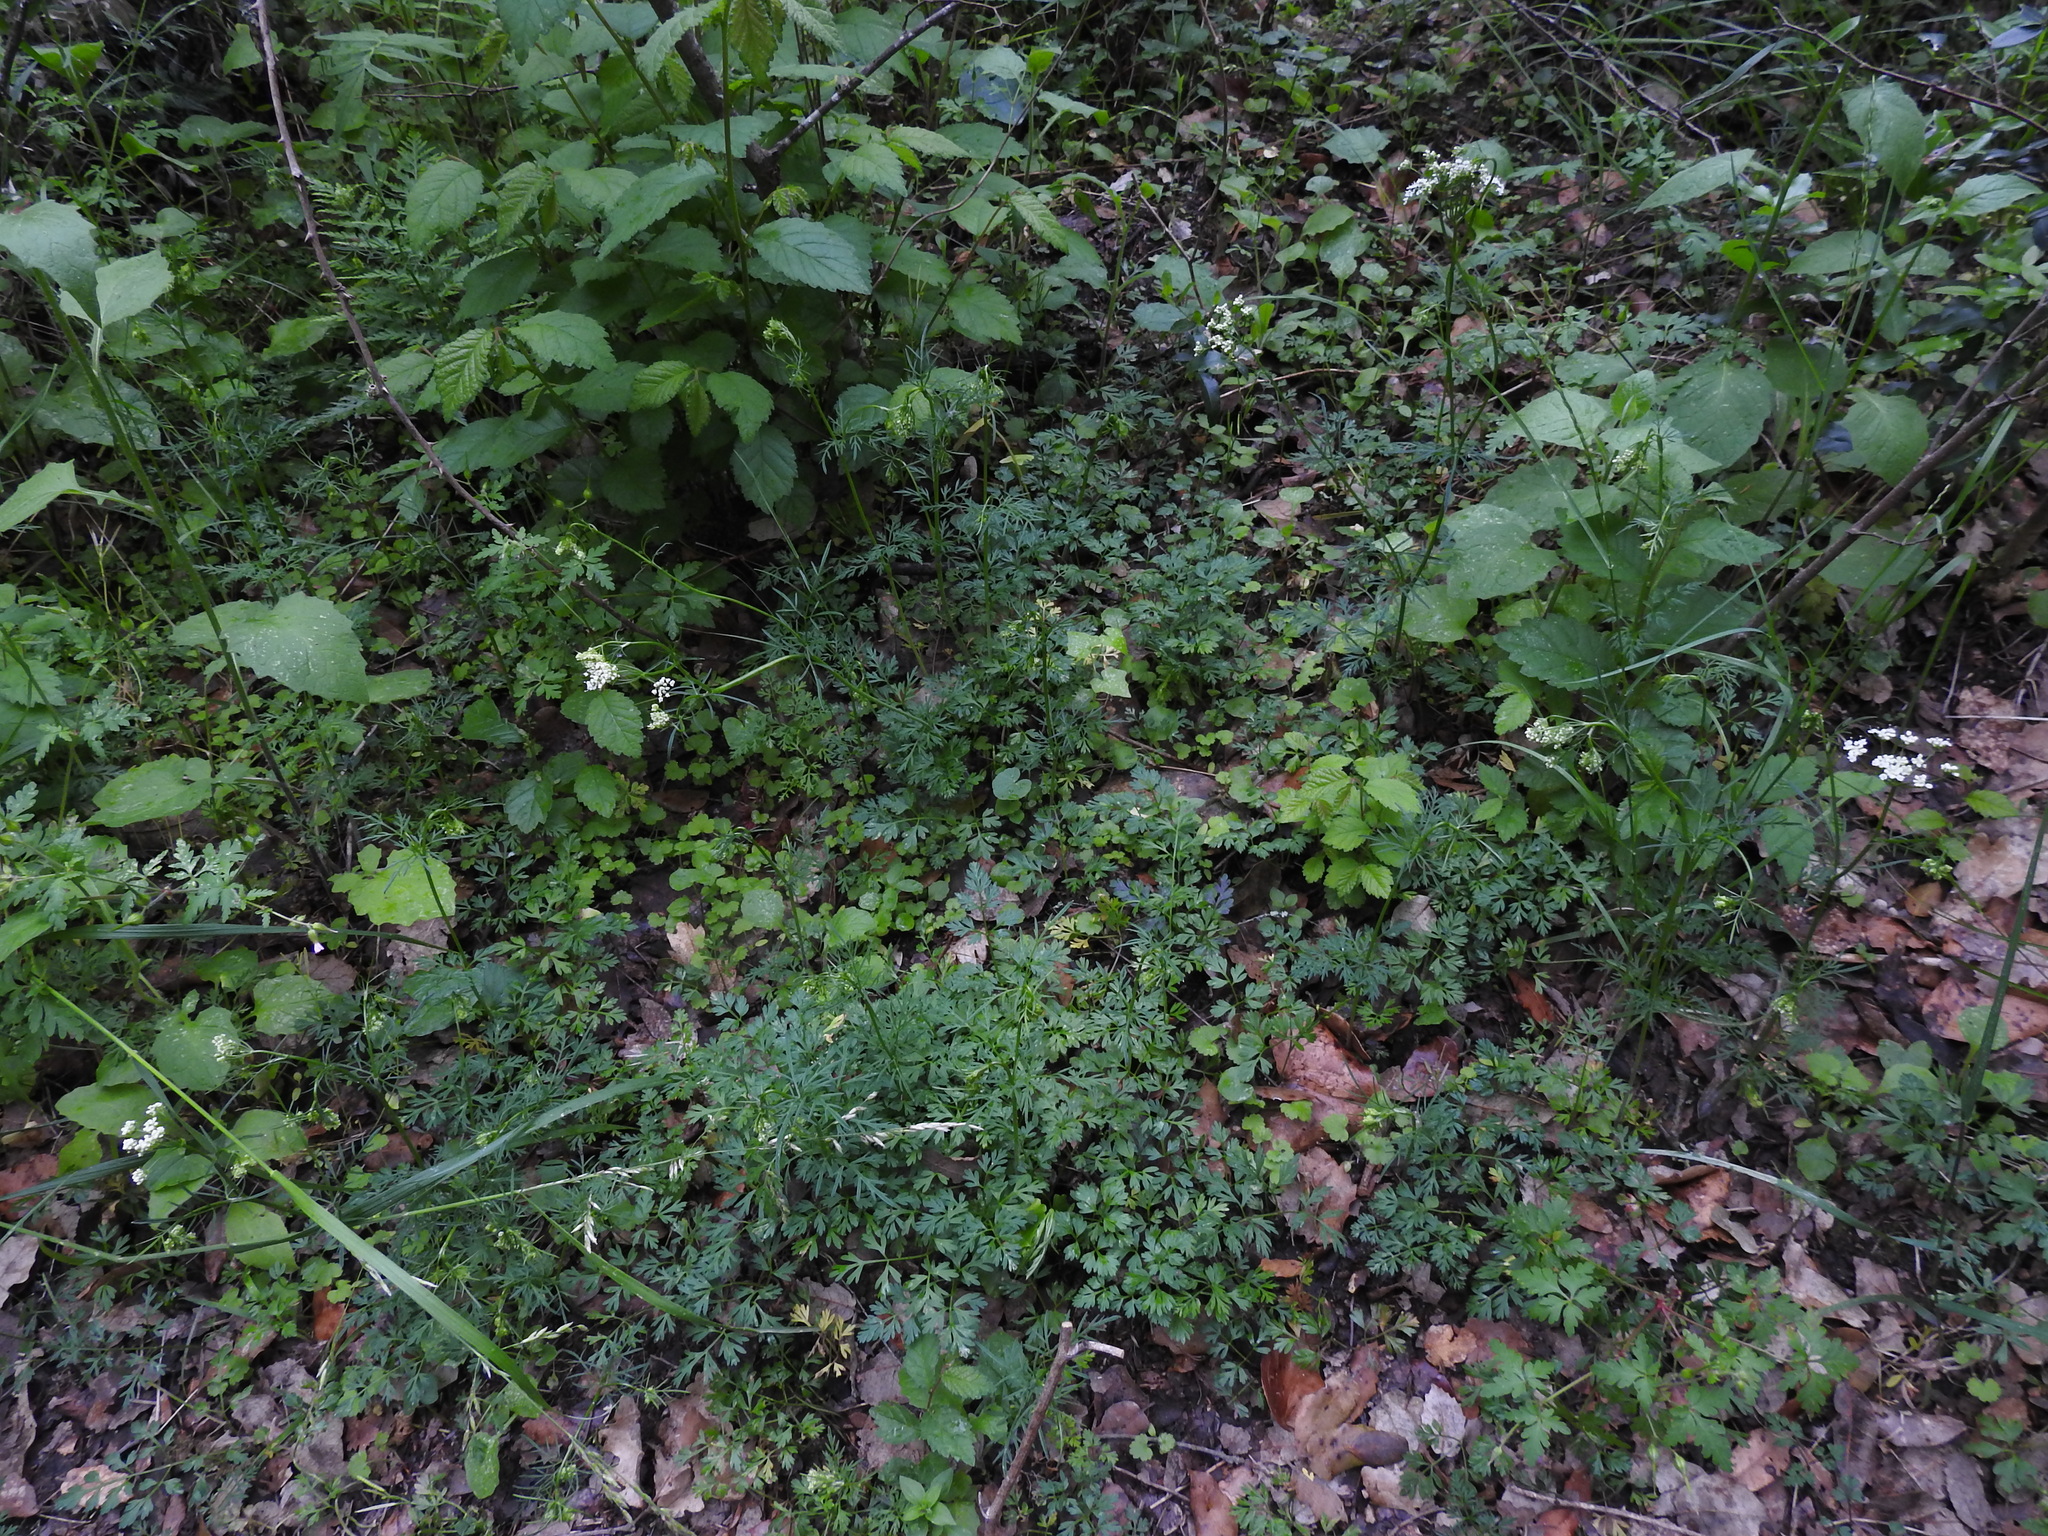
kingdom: Plantae
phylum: Tracheophyta
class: Magnoliopsida
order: Apiales
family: Apiaceae
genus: Conopodium
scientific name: Conopodium majus
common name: Pignut
